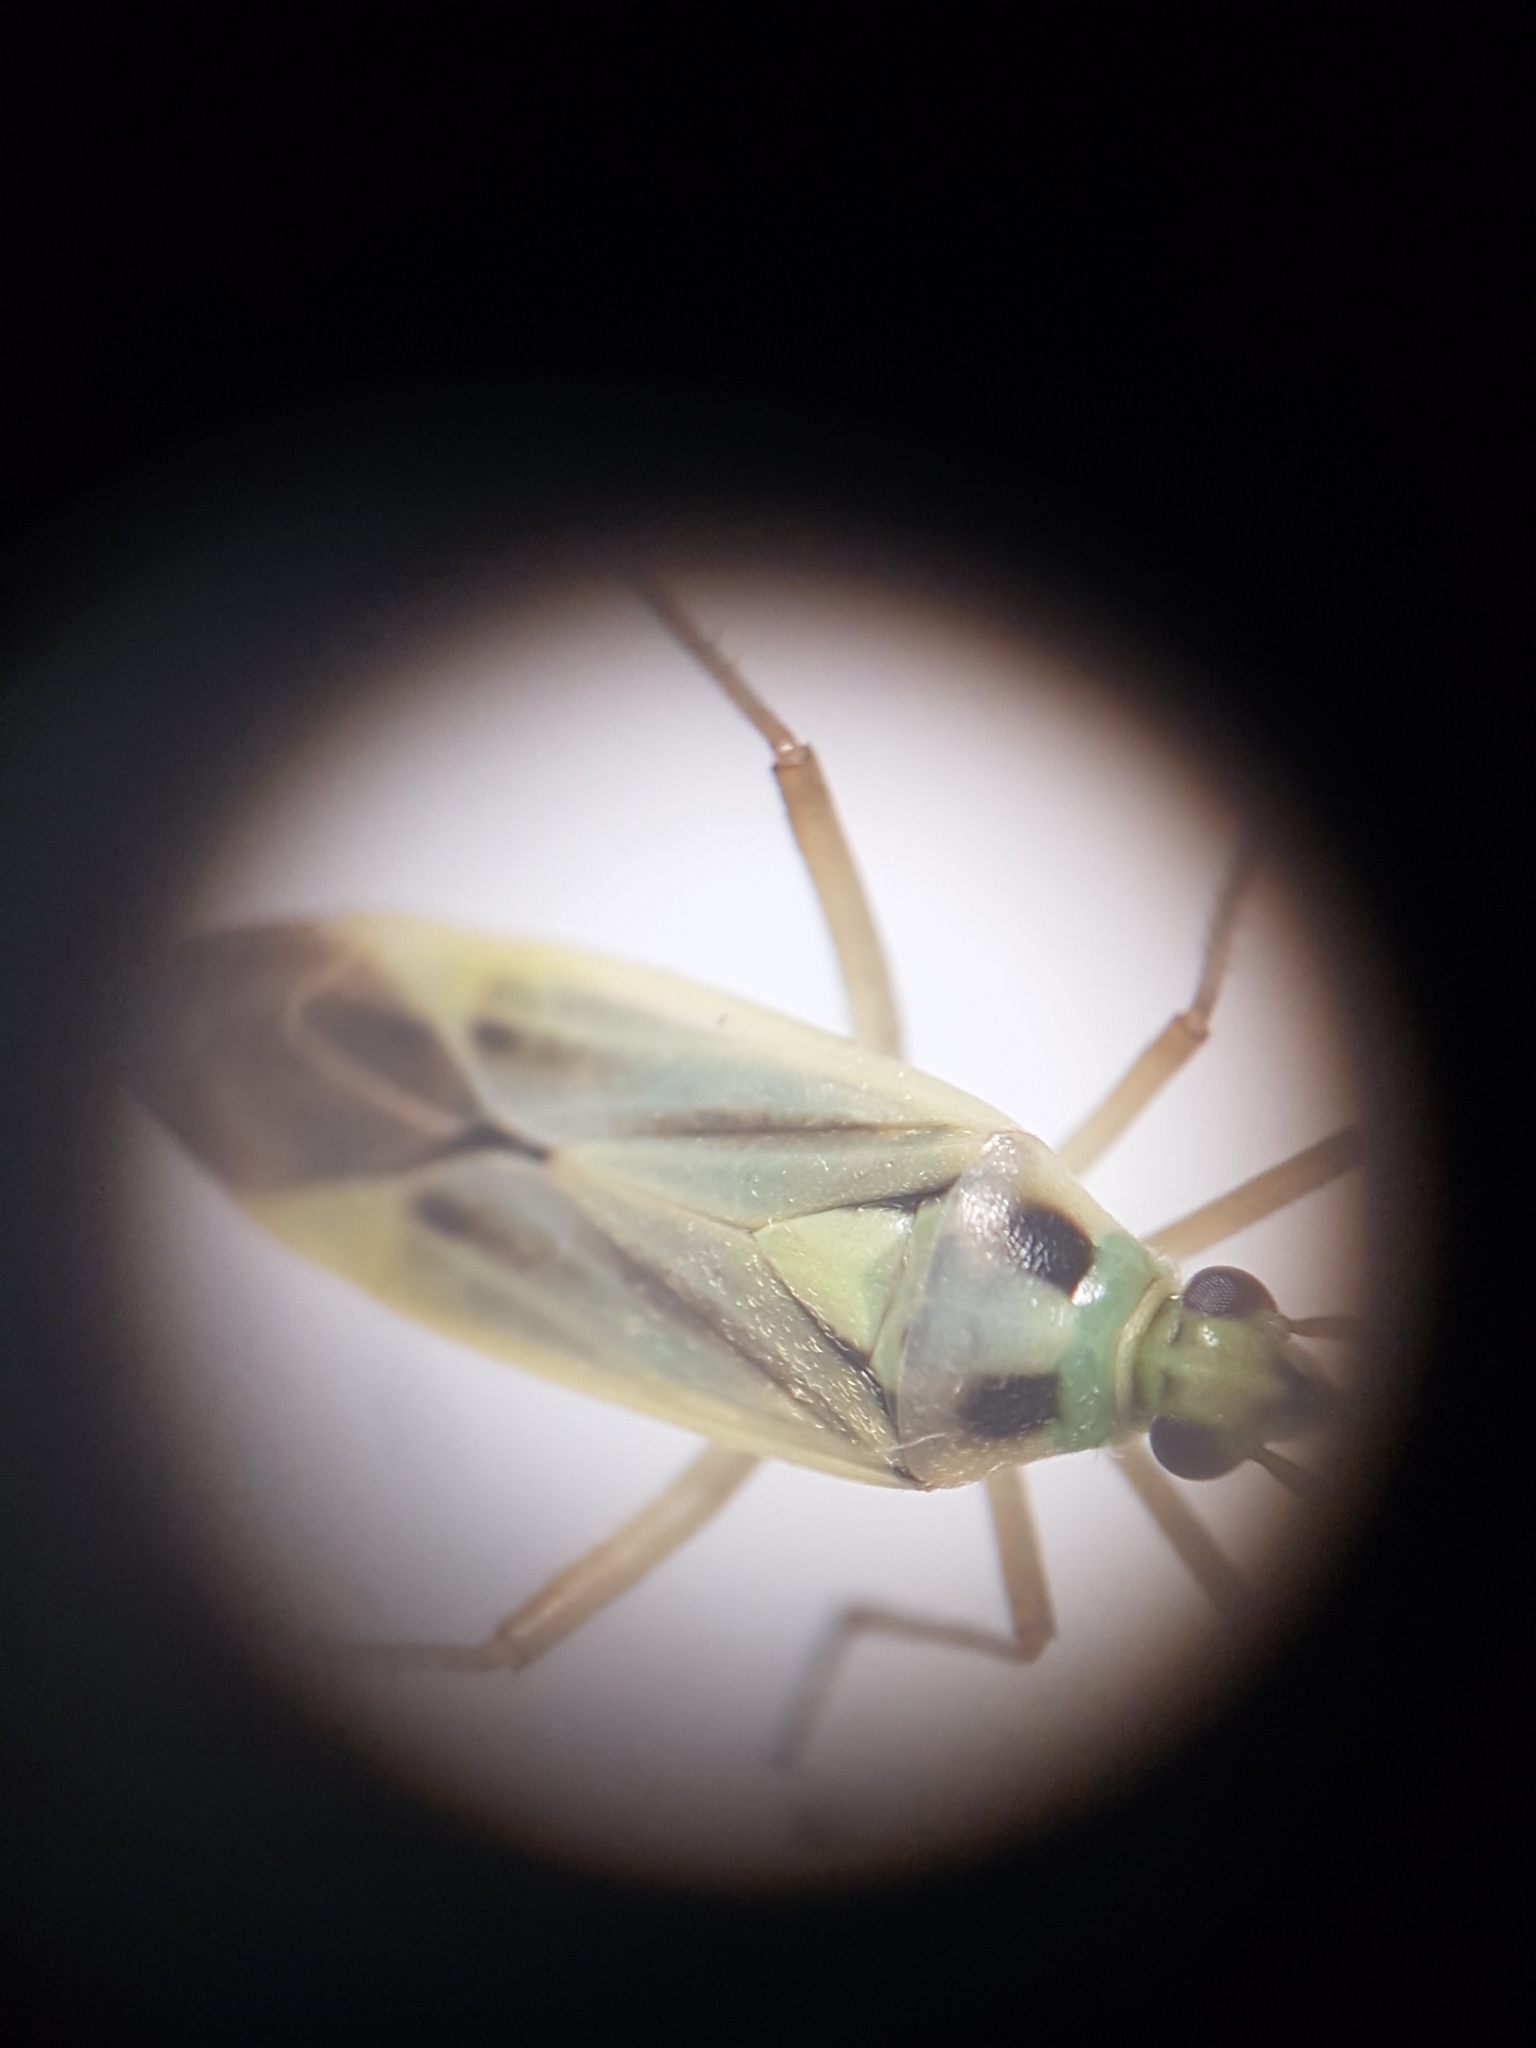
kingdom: Animalia
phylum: Arthropoda
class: Insecta
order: Hemiptera
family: Miridae
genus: Stenotus
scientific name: Stenotus binotatus
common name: Plant bug
